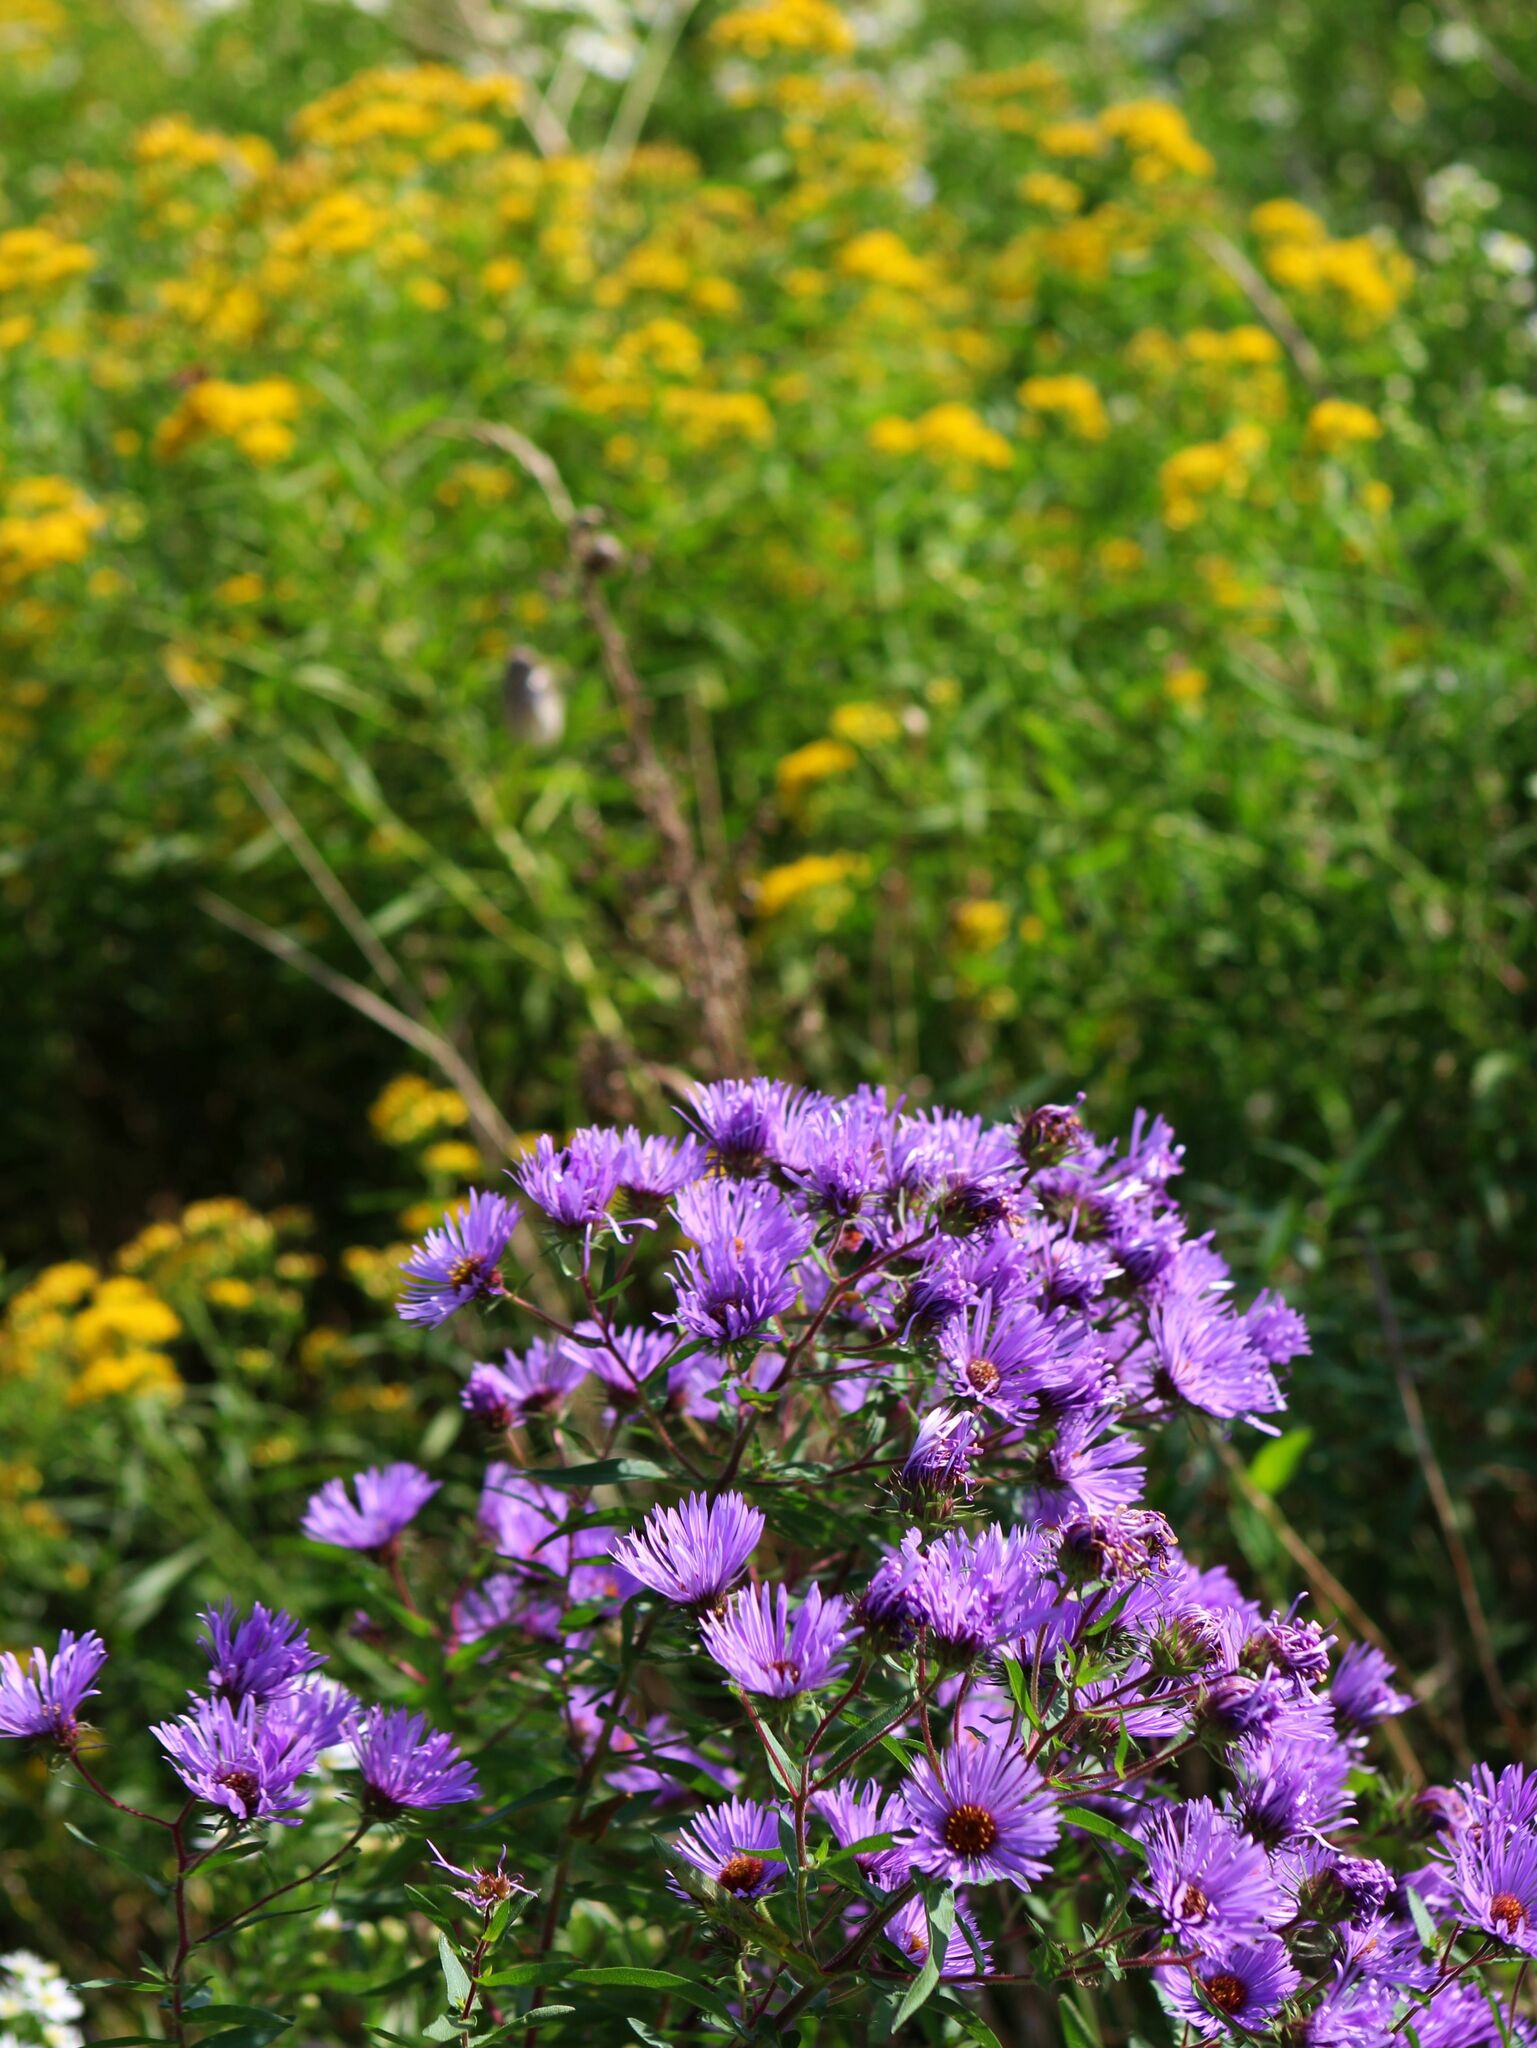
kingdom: Plantae
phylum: Tracheophyta
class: Magnoliopsida
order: Asterales
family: Asteraceae
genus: Symphyotrichum
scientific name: Symphyotrichum novae-angliae
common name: Michaelmas daisy
